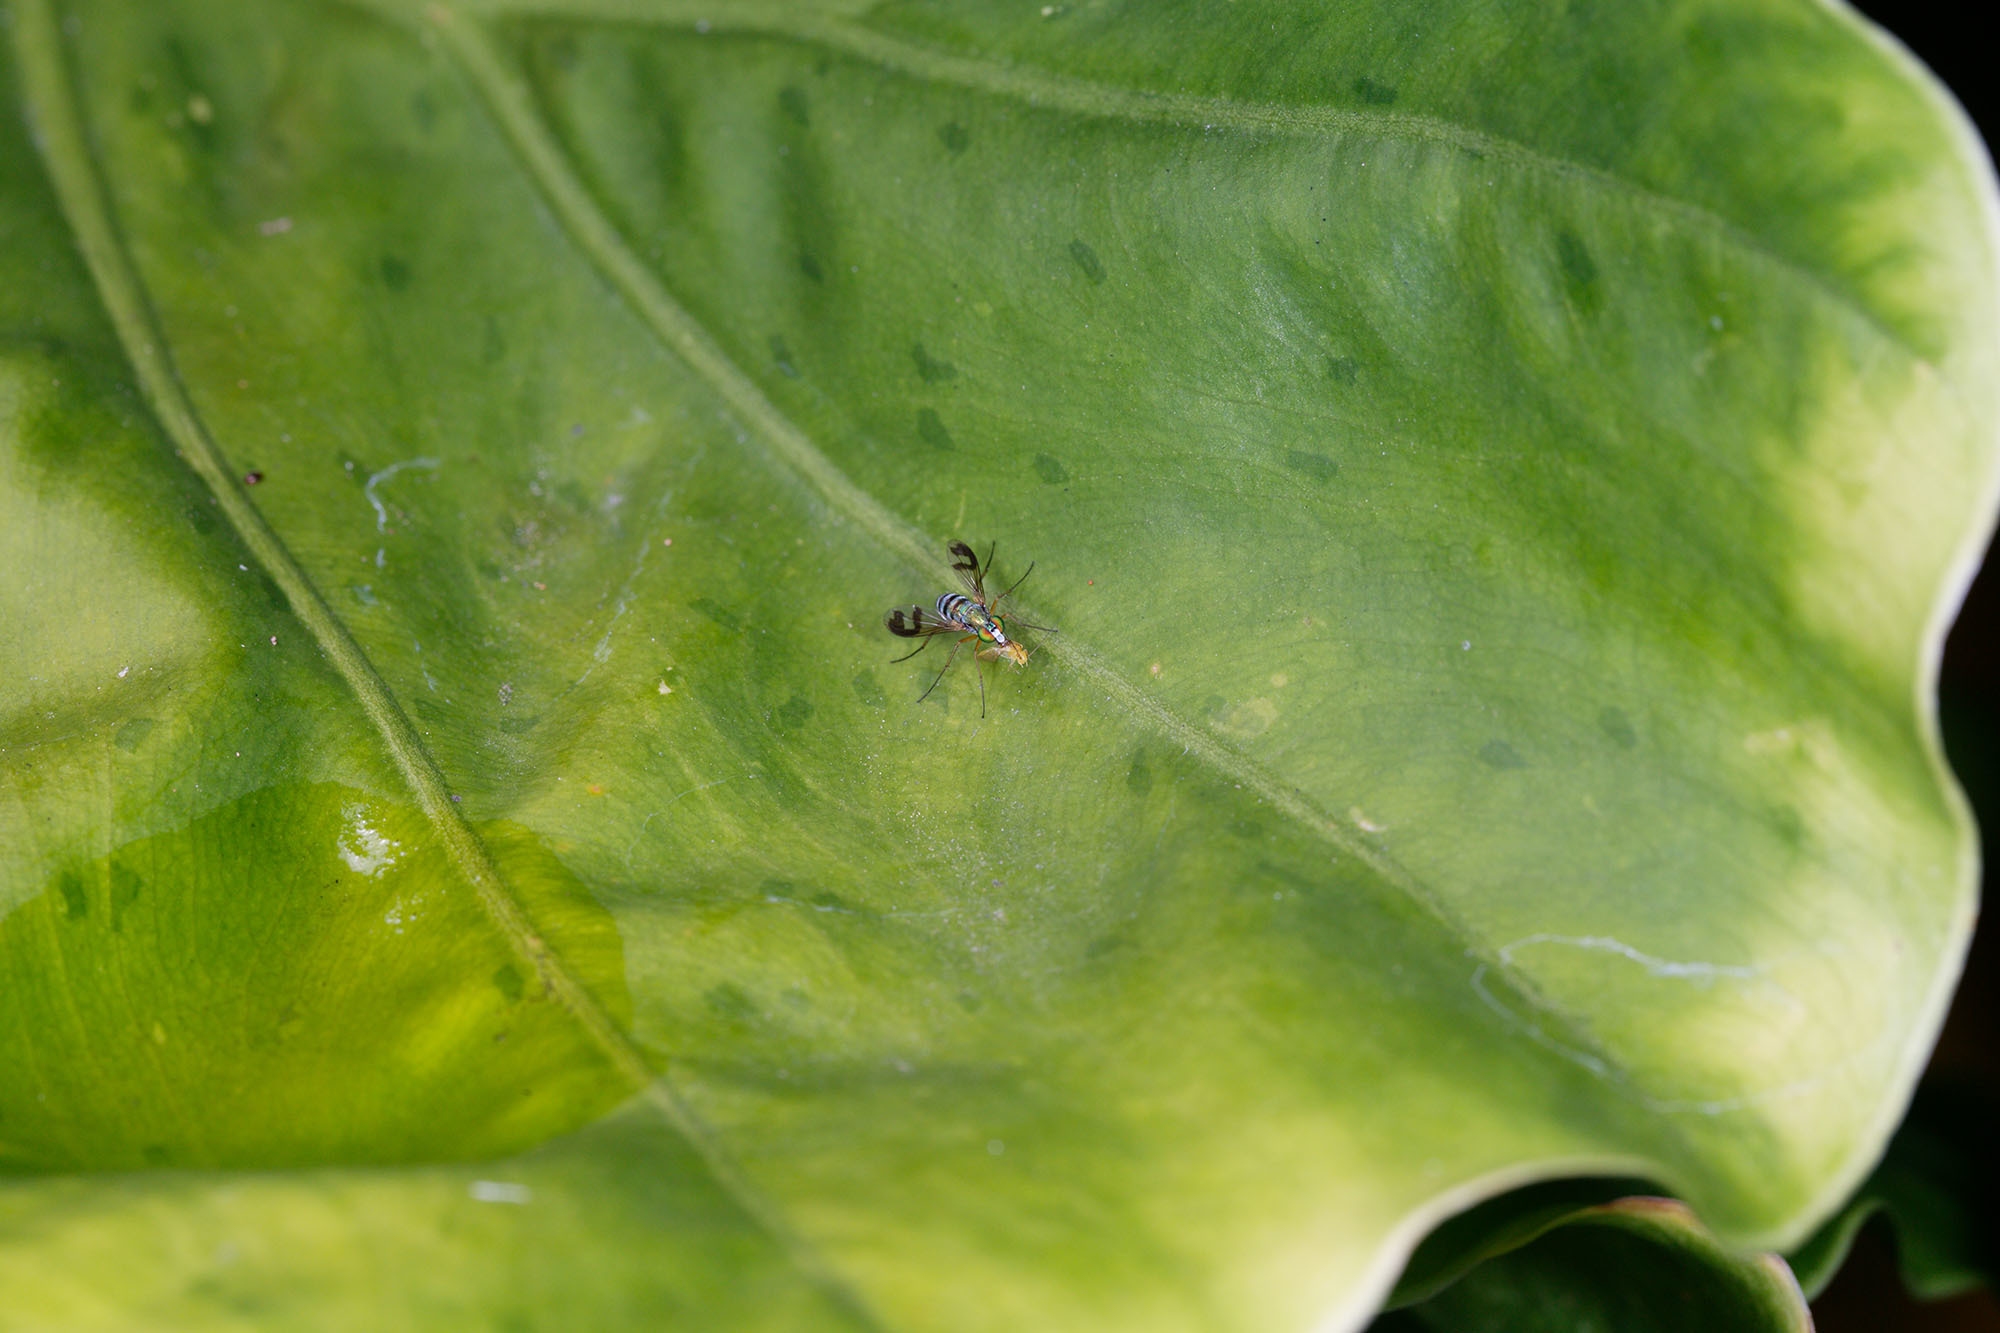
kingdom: Animalia
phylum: Arthropoda
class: Insecta
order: Diptera
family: Dolichopodidae
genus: Austrosciapus
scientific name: Austrosciapus proximus
